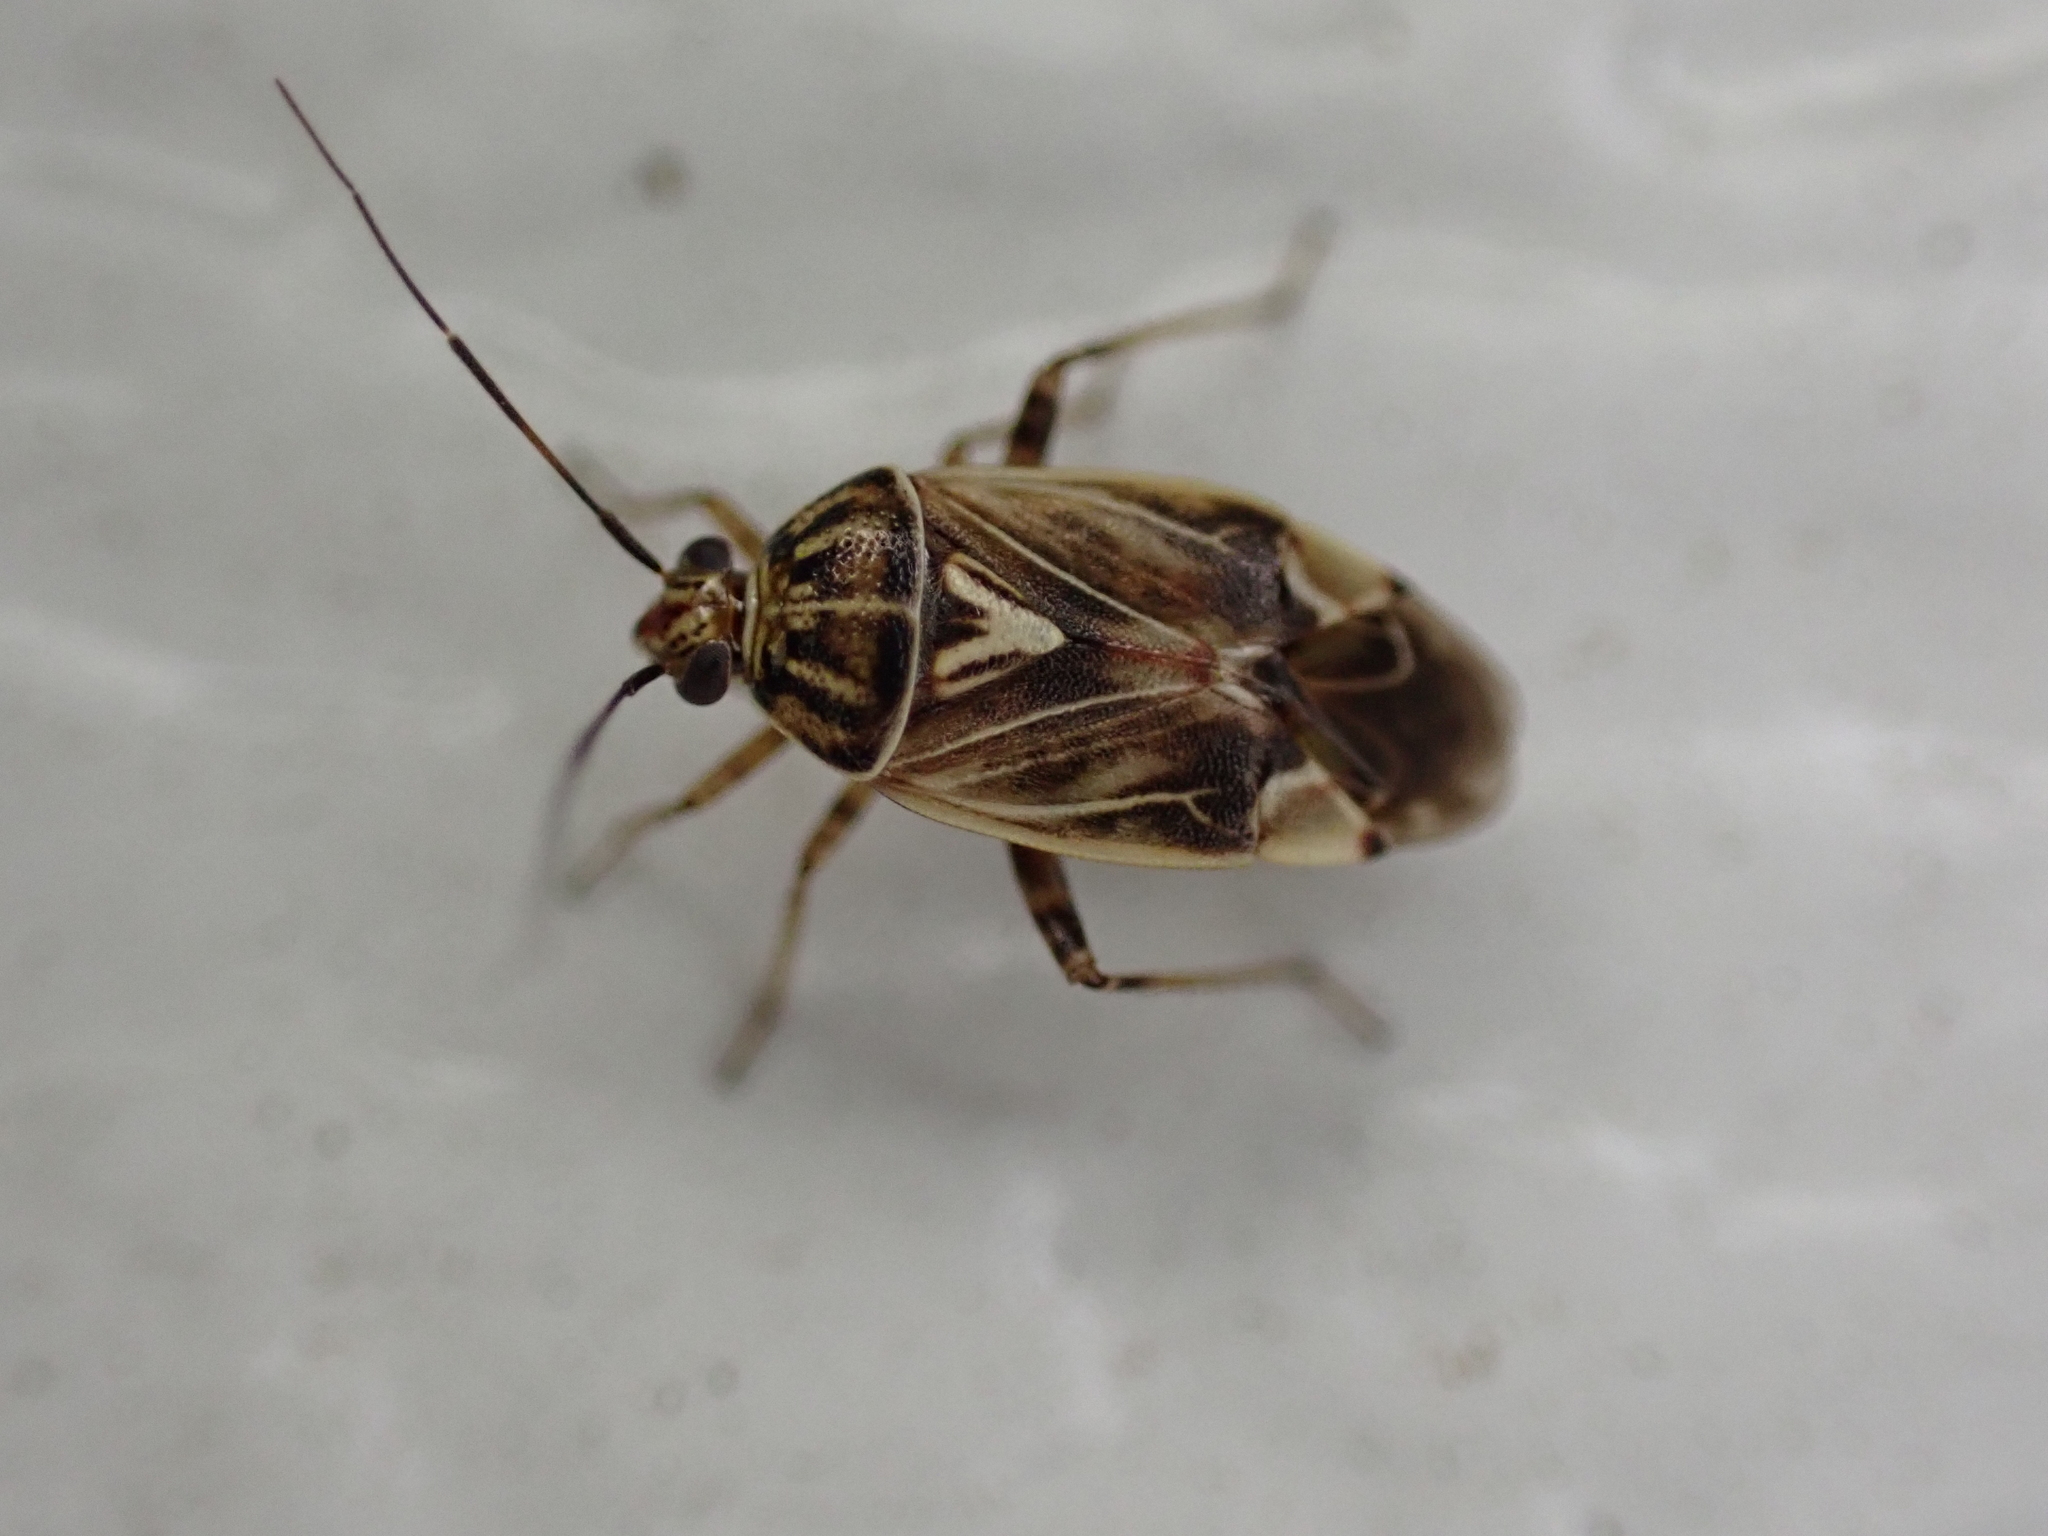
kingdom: Animalia
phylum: Arthropoda
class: Insecta
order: Hemiptera
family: Miridae
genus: Lygus
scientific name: Lygus lineolaris
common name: North american tarnished plant bug
